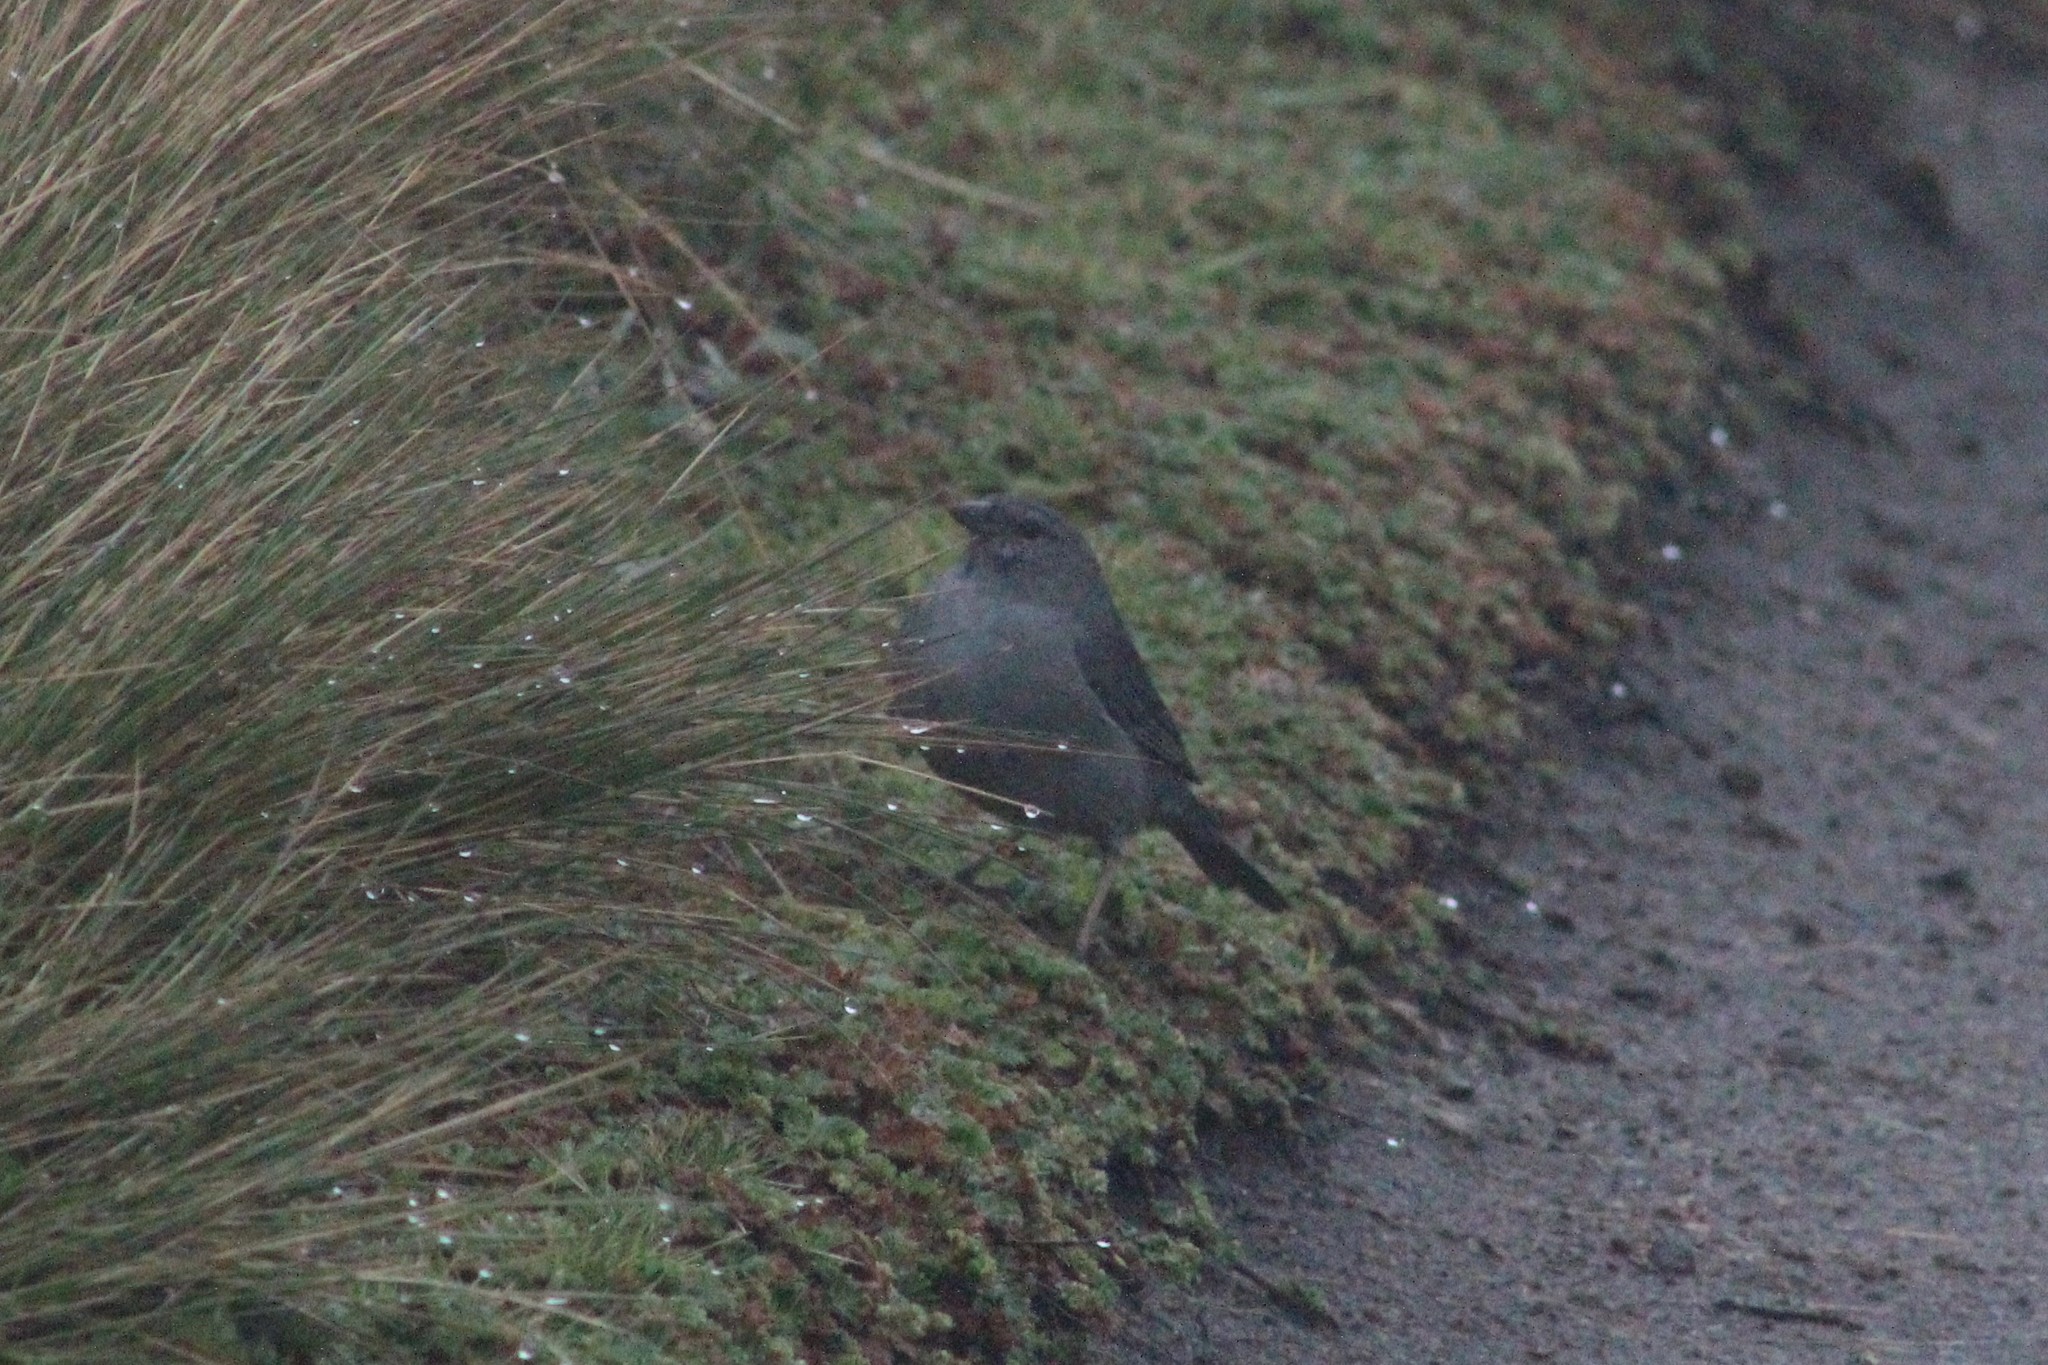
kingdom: Animalia
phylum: Chordata
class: Aves
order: Passeriformes
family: Thraupidae
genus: Geospizopsis
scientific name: Geospizopsis unicolor
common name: Plumbeous sierra-finch
